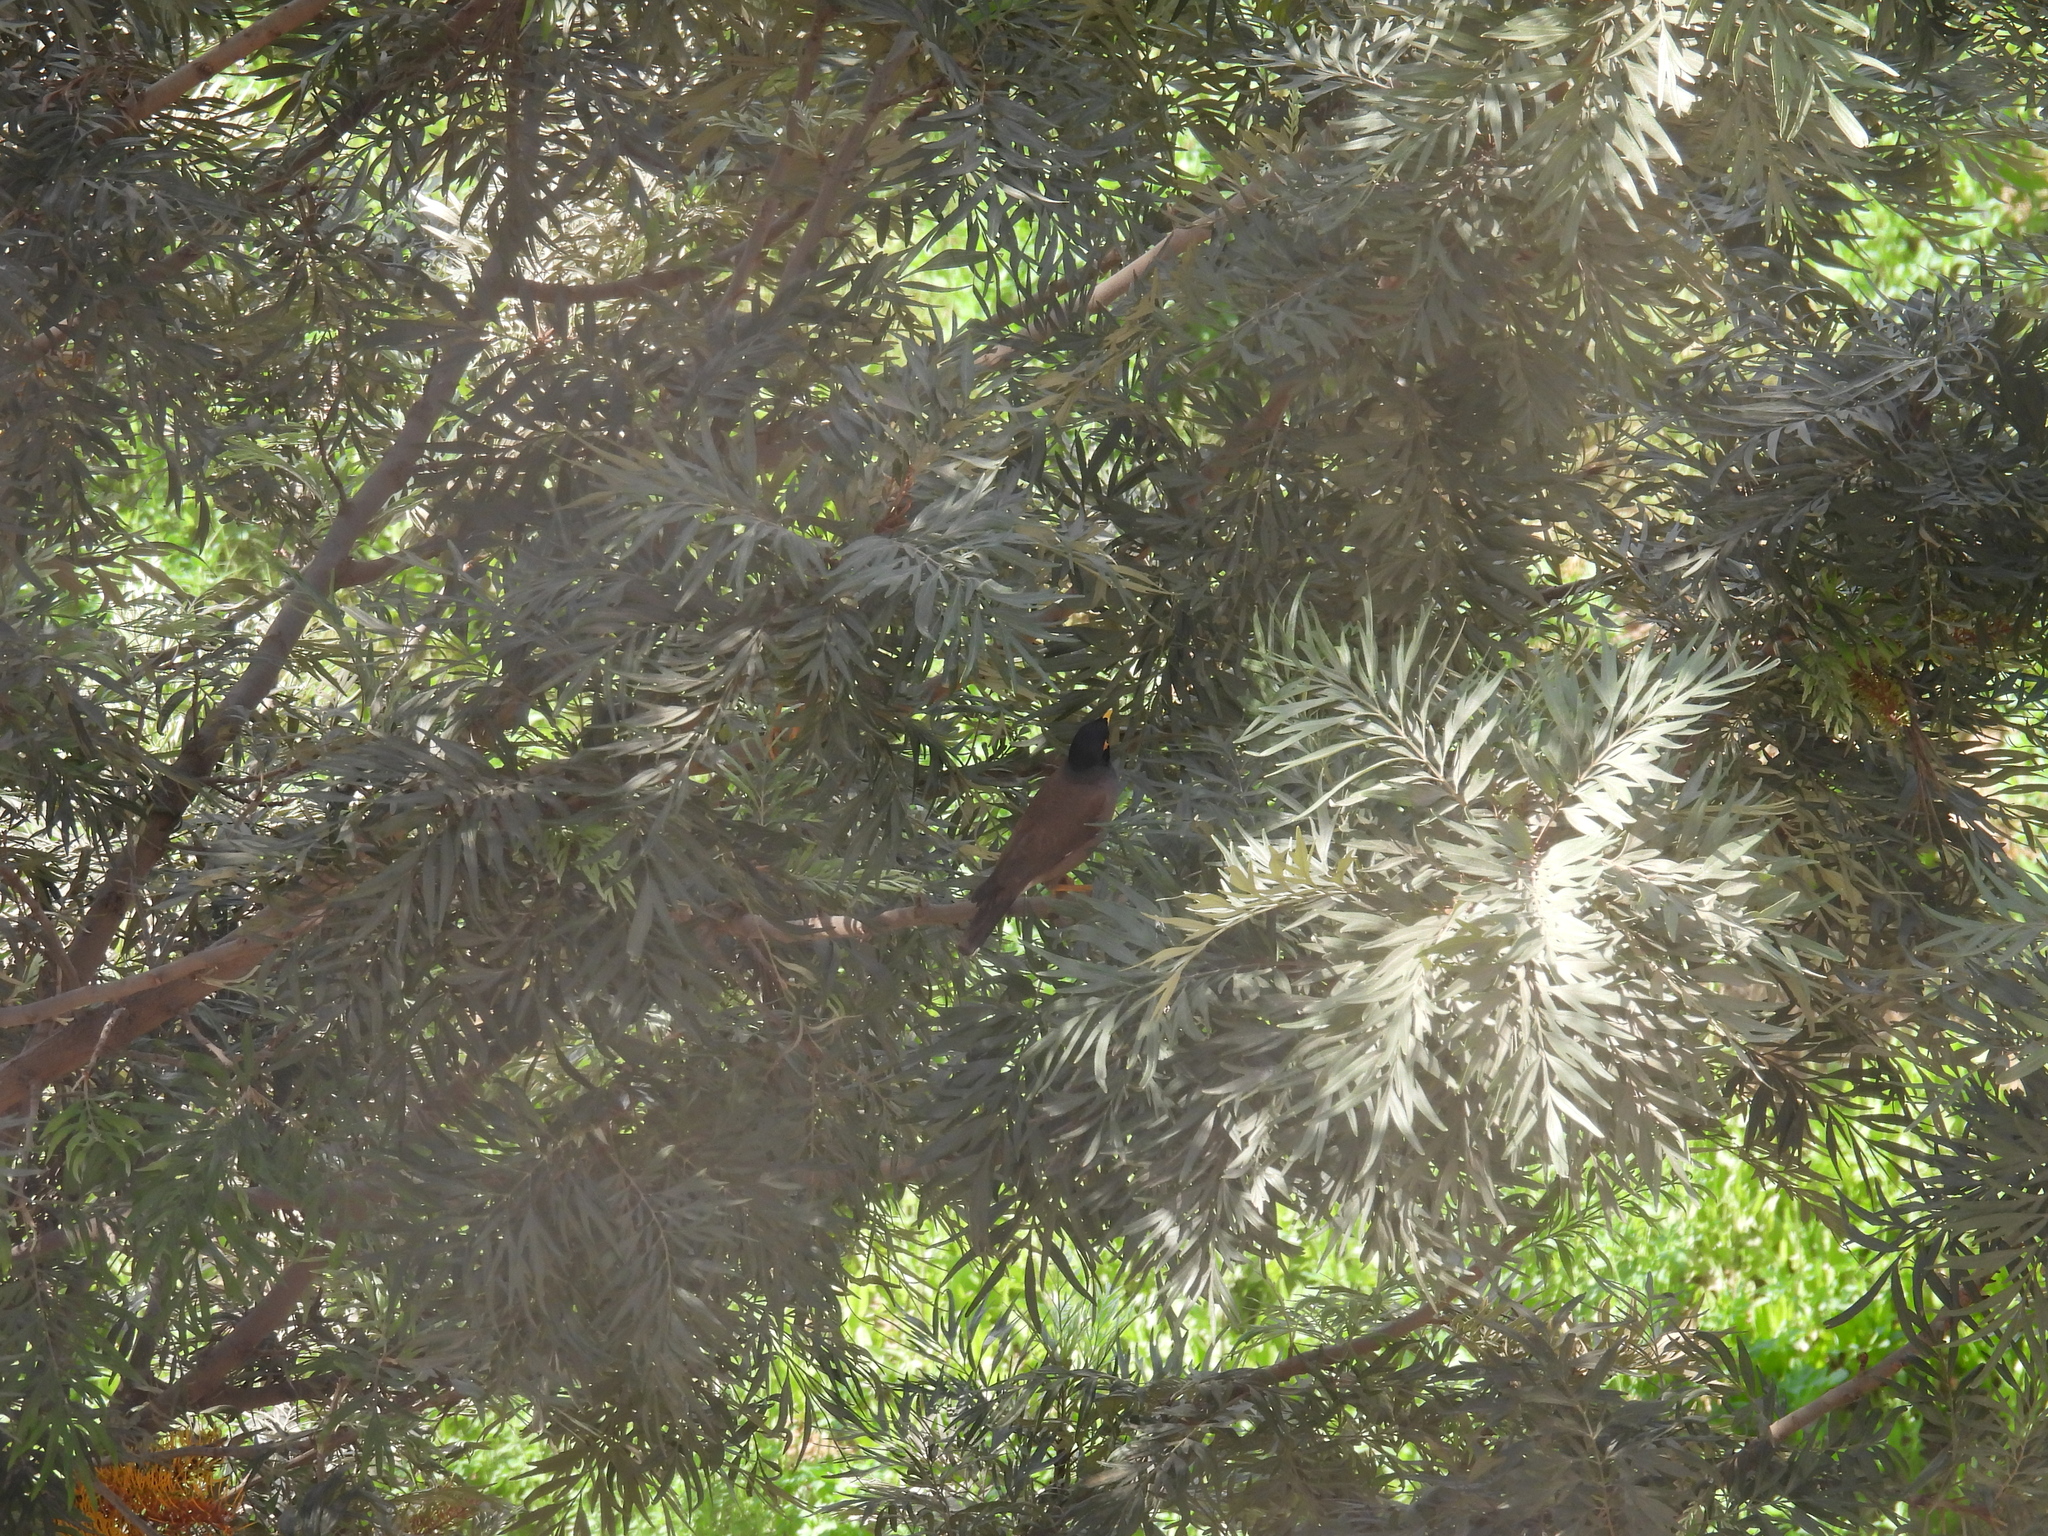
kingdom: Animalia
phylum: Chordata
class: Aves
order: Passeriformes
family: Sturnidae
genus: Acridotheres
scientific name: Acridotheres tristis
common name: Common myna
